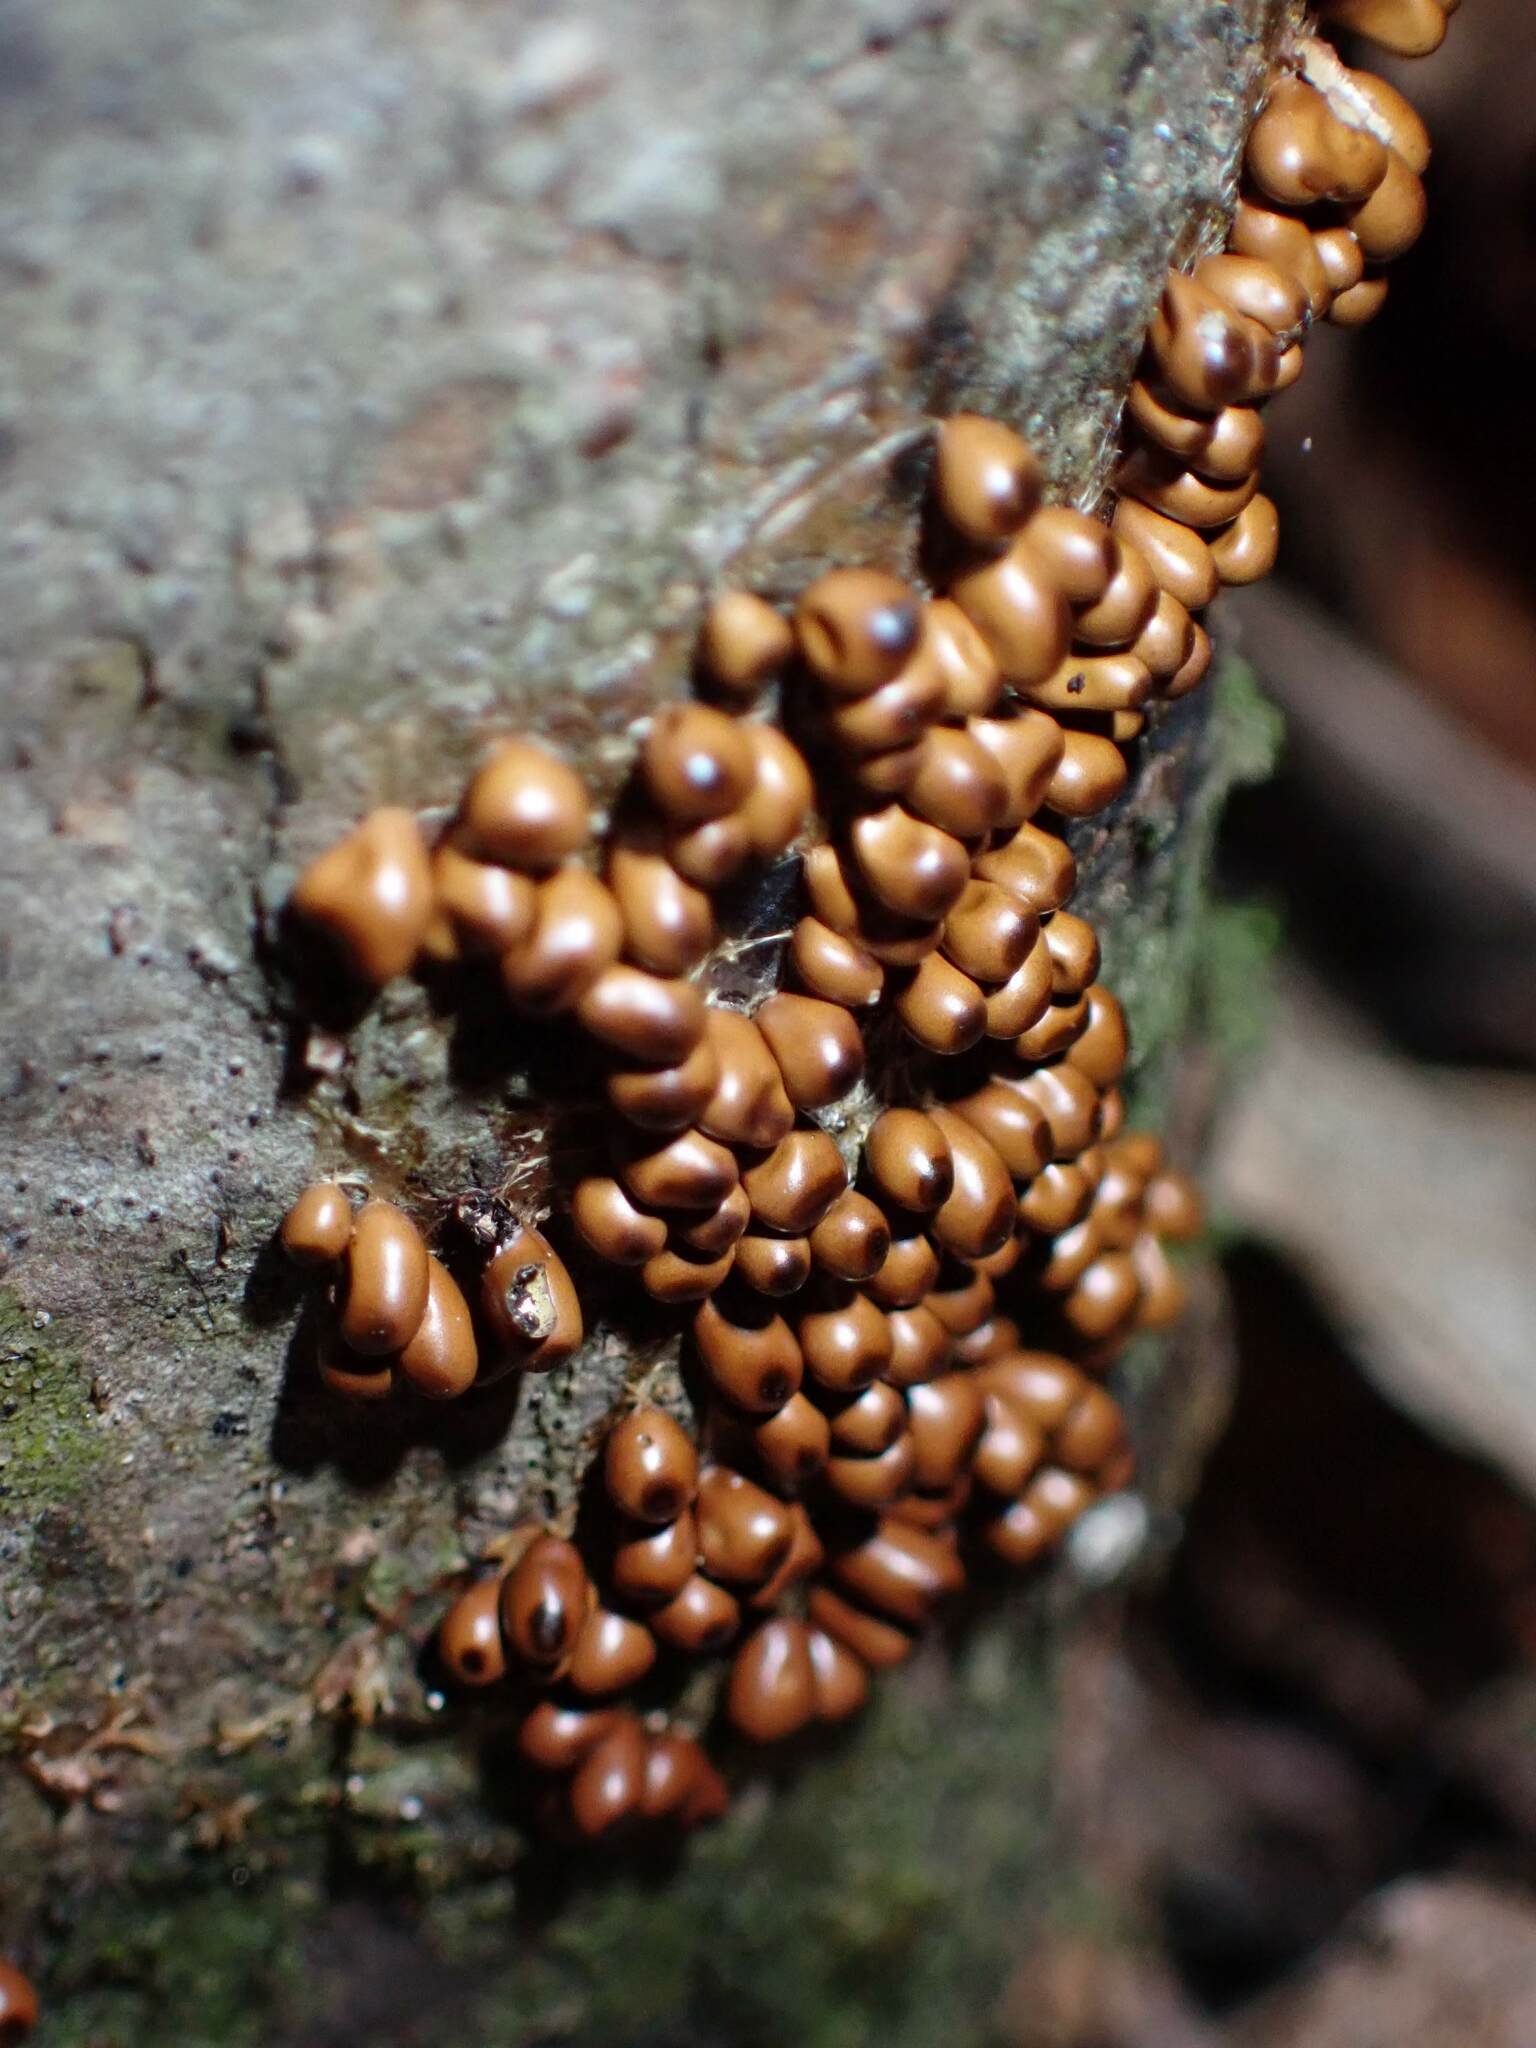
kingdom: Protozoa
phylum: Mycetozoa
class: Myxomycetes
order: Physarales
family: Physaraceae
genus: Leocarpus
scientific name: Leocarpus fragilis
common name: Insect-egg slime
